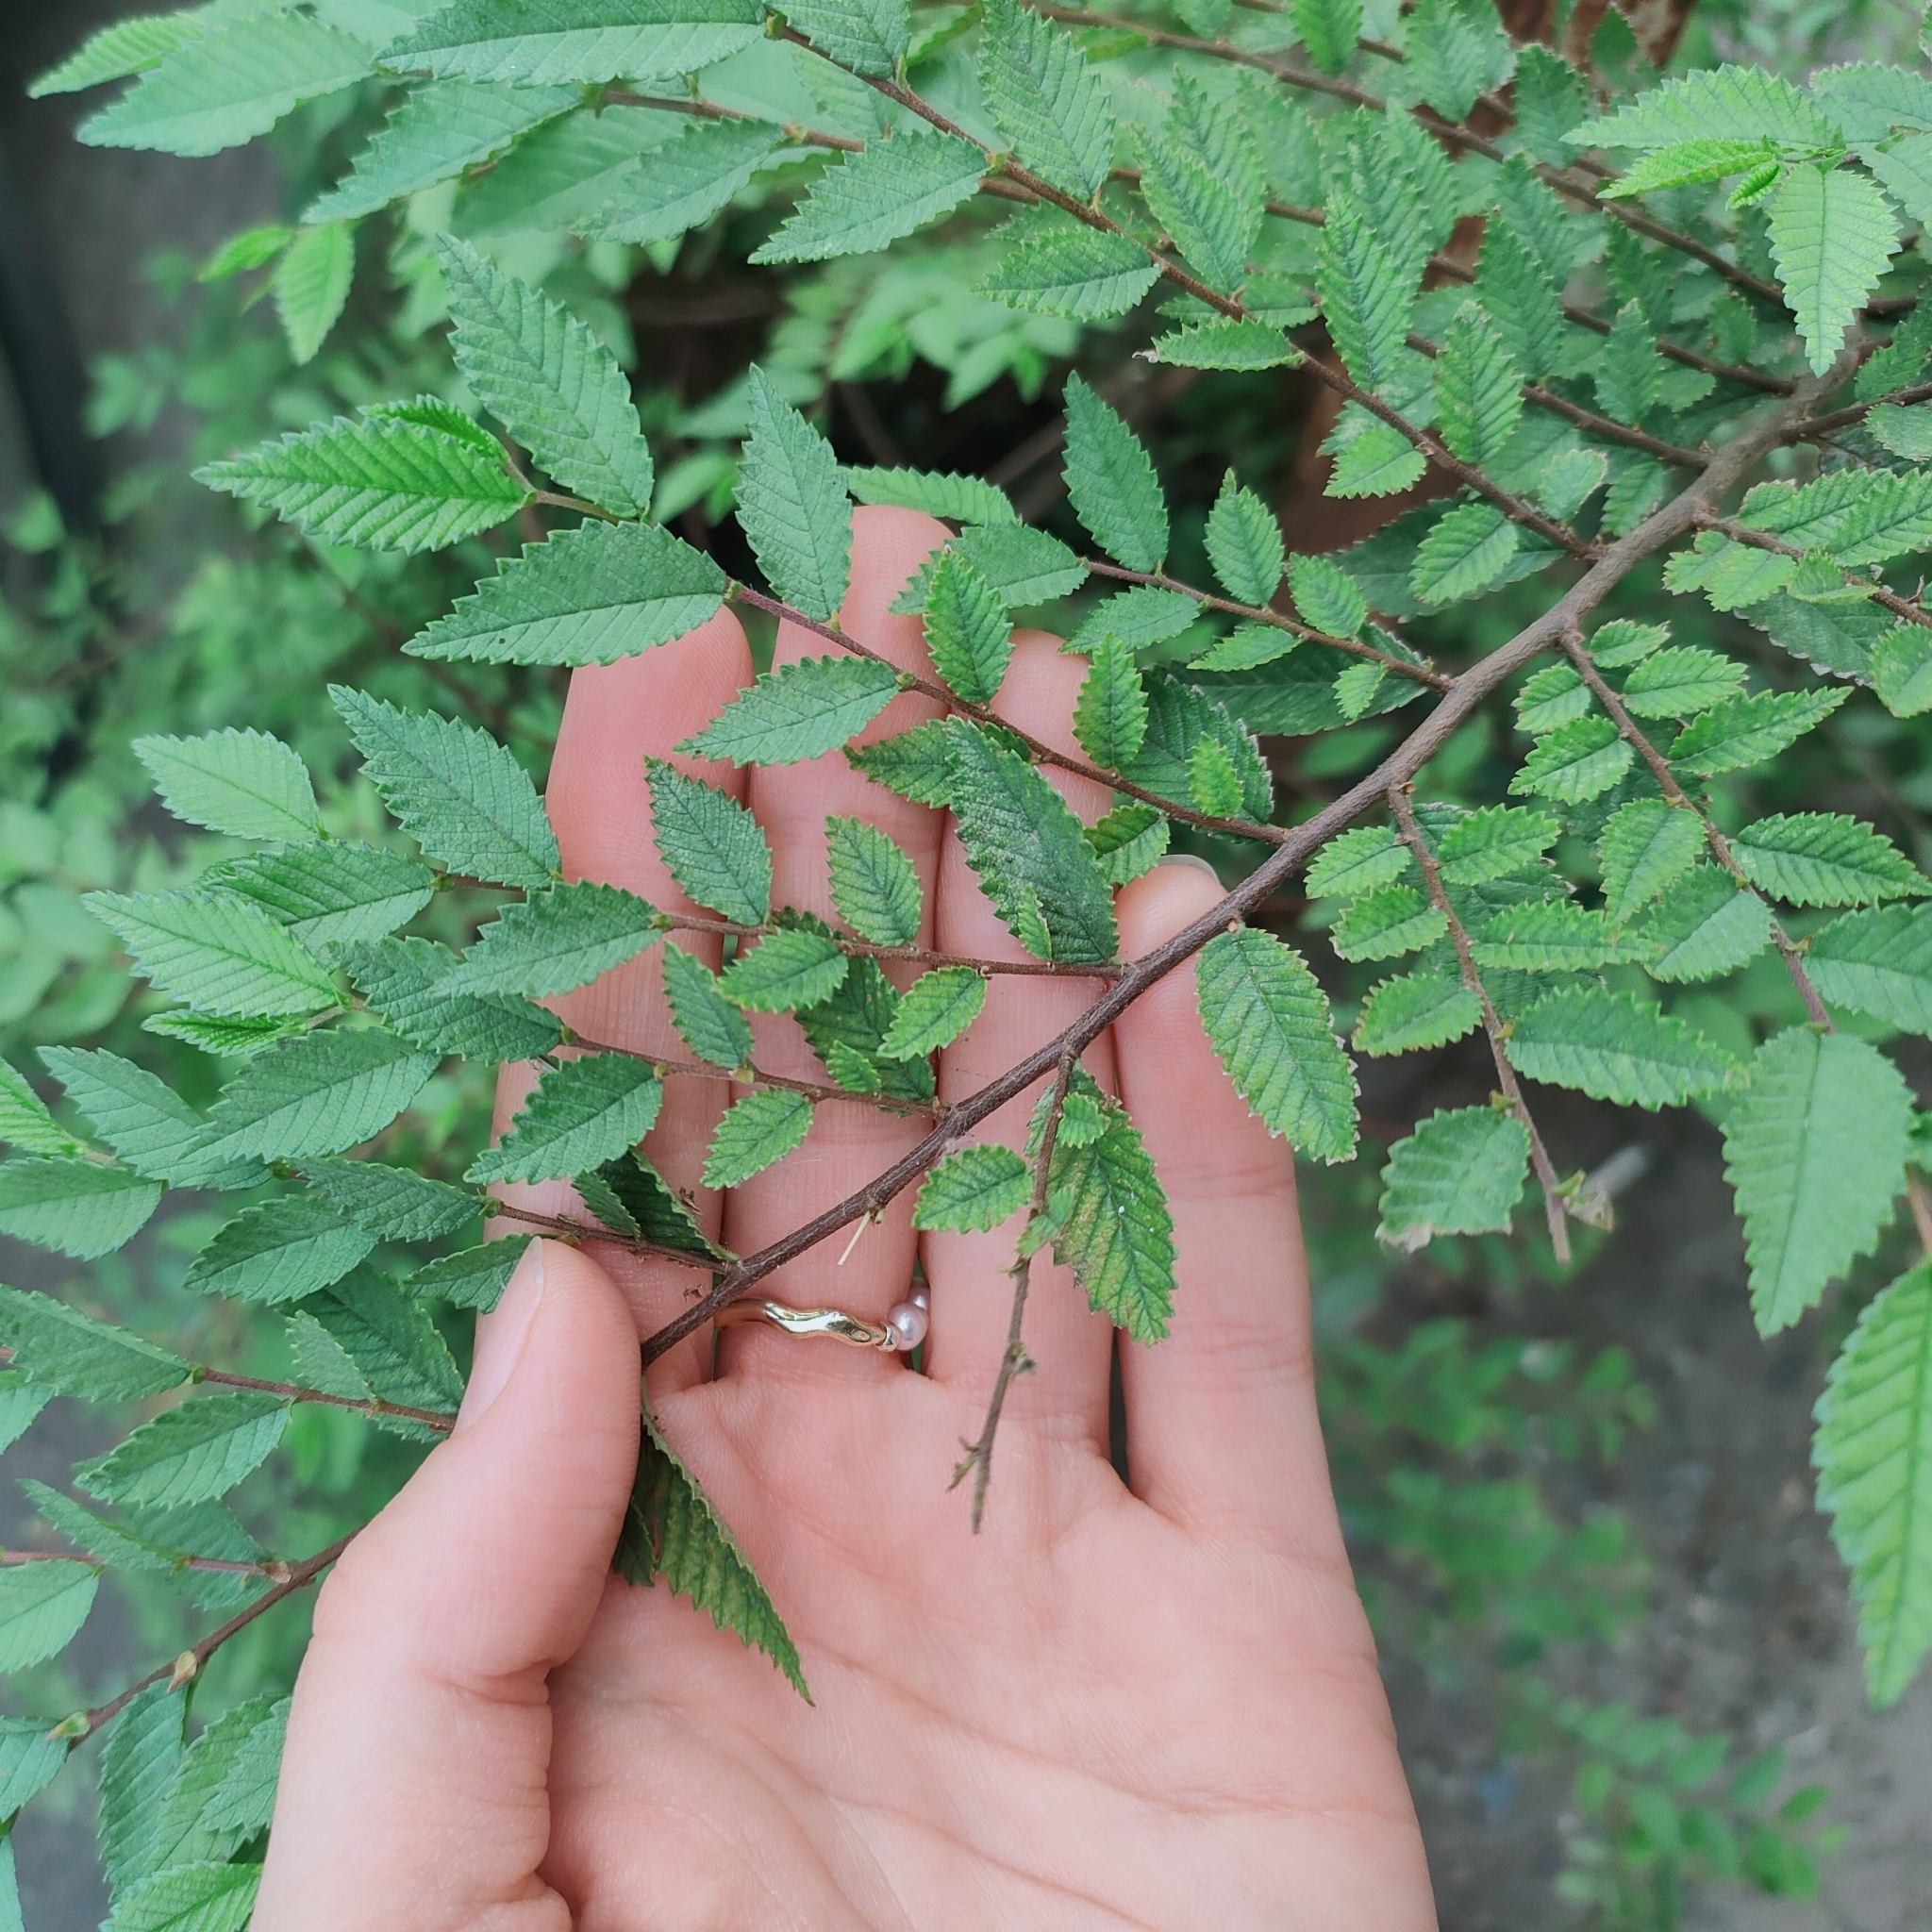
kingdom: Plantae
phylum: Tracheophyta
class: Magnoliopsida
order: Rosales
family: Ulmaceae
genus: Ulmus
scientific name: Ulmus pumila
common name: Siberian elm
